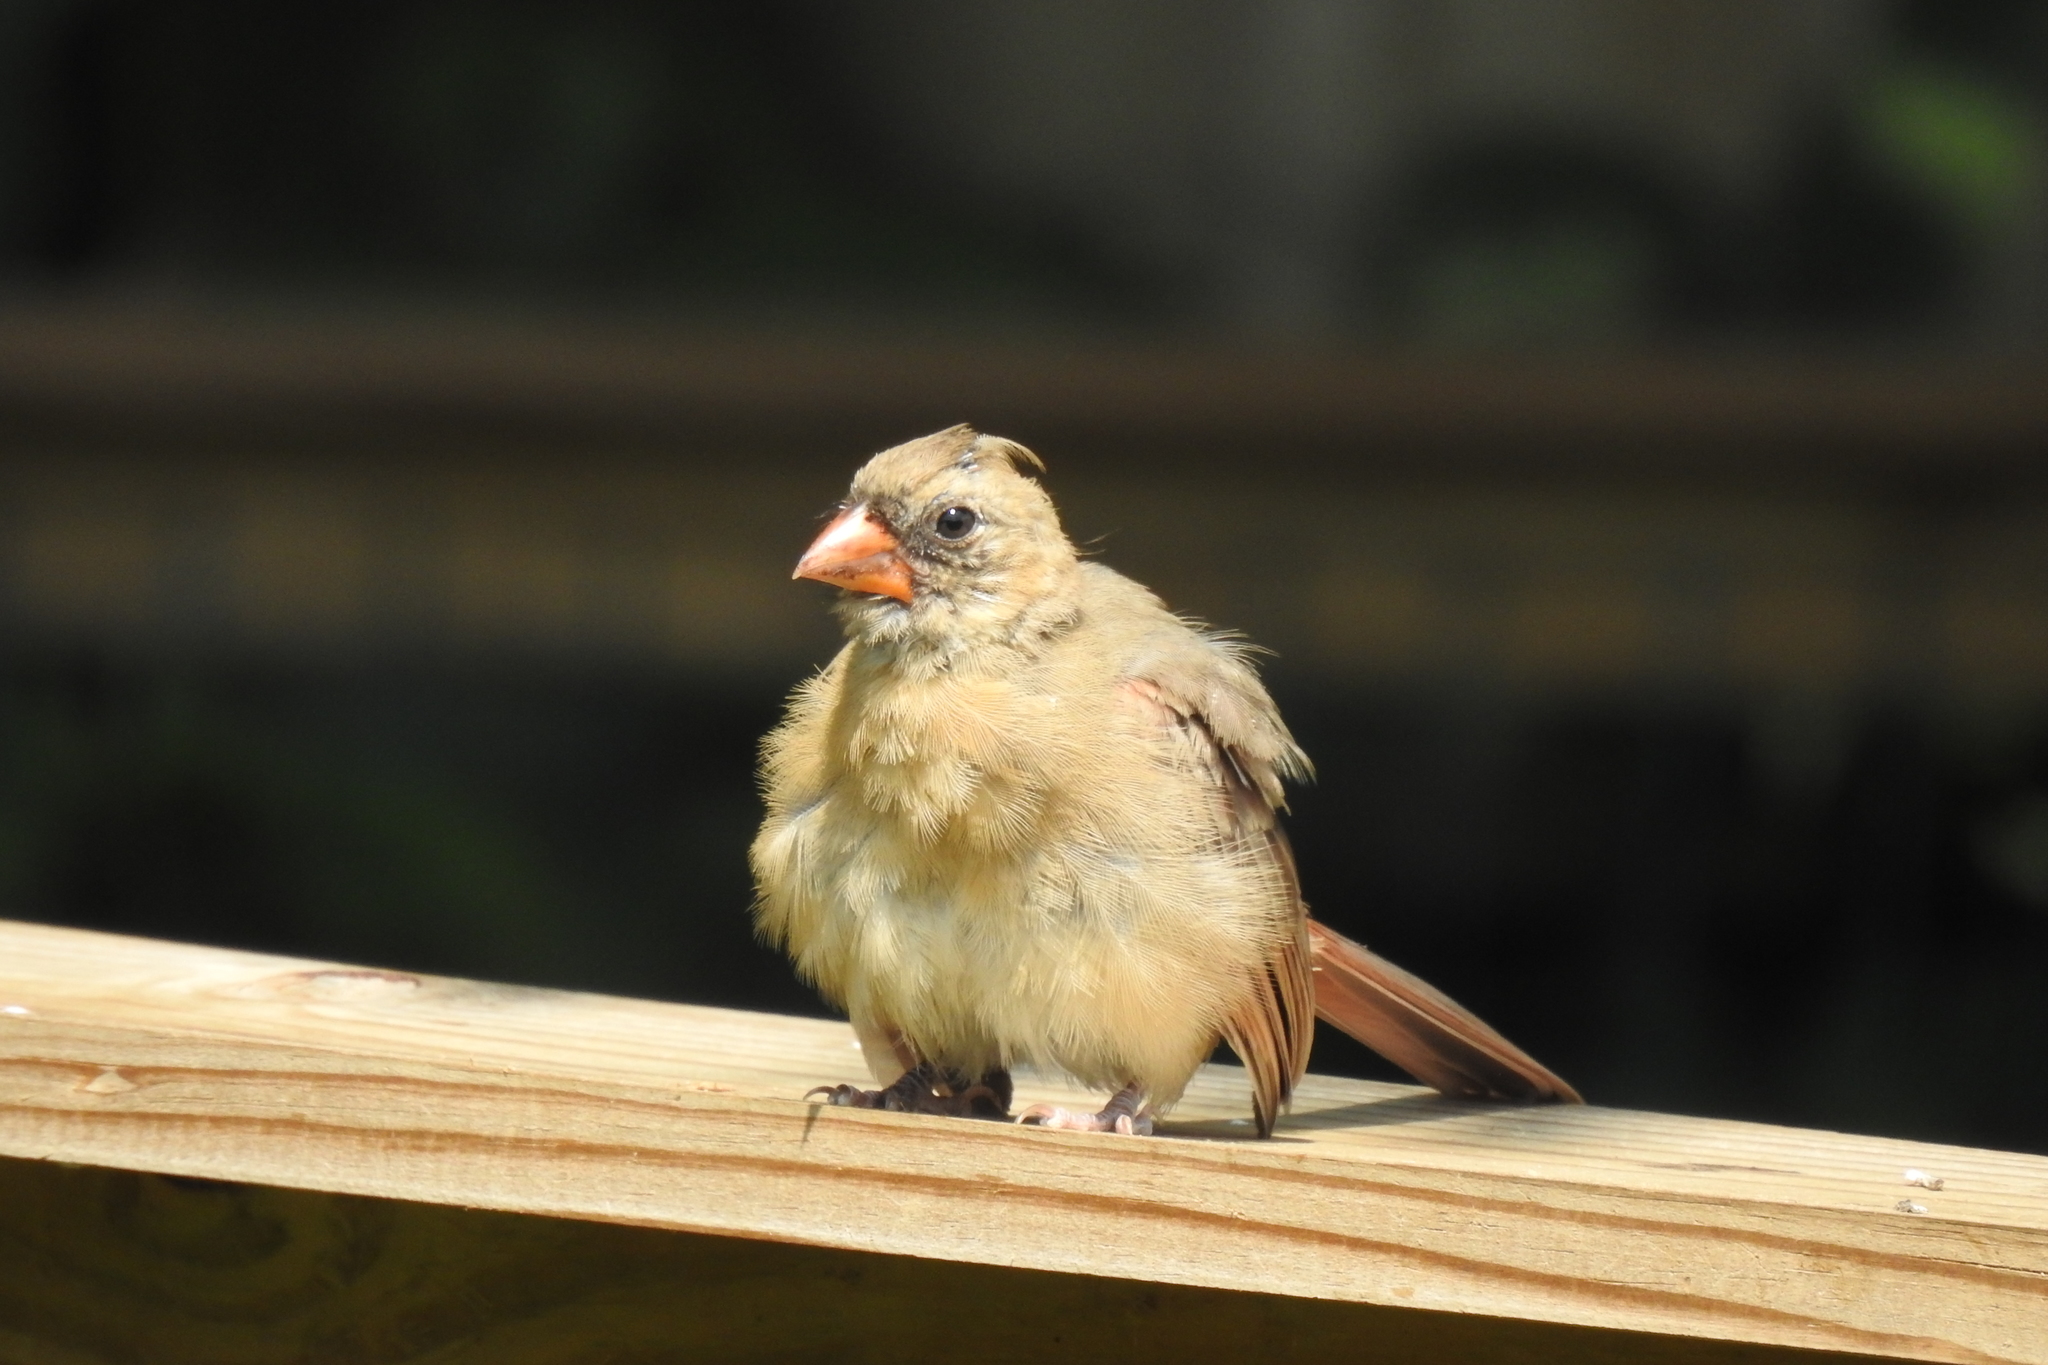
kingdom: Animalia
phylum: Chordata
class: Aves
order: Passeriformes
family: Cardinalidae
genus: Cardinalis
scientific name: Cardinalis cardinalis
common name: Northern cardinal
